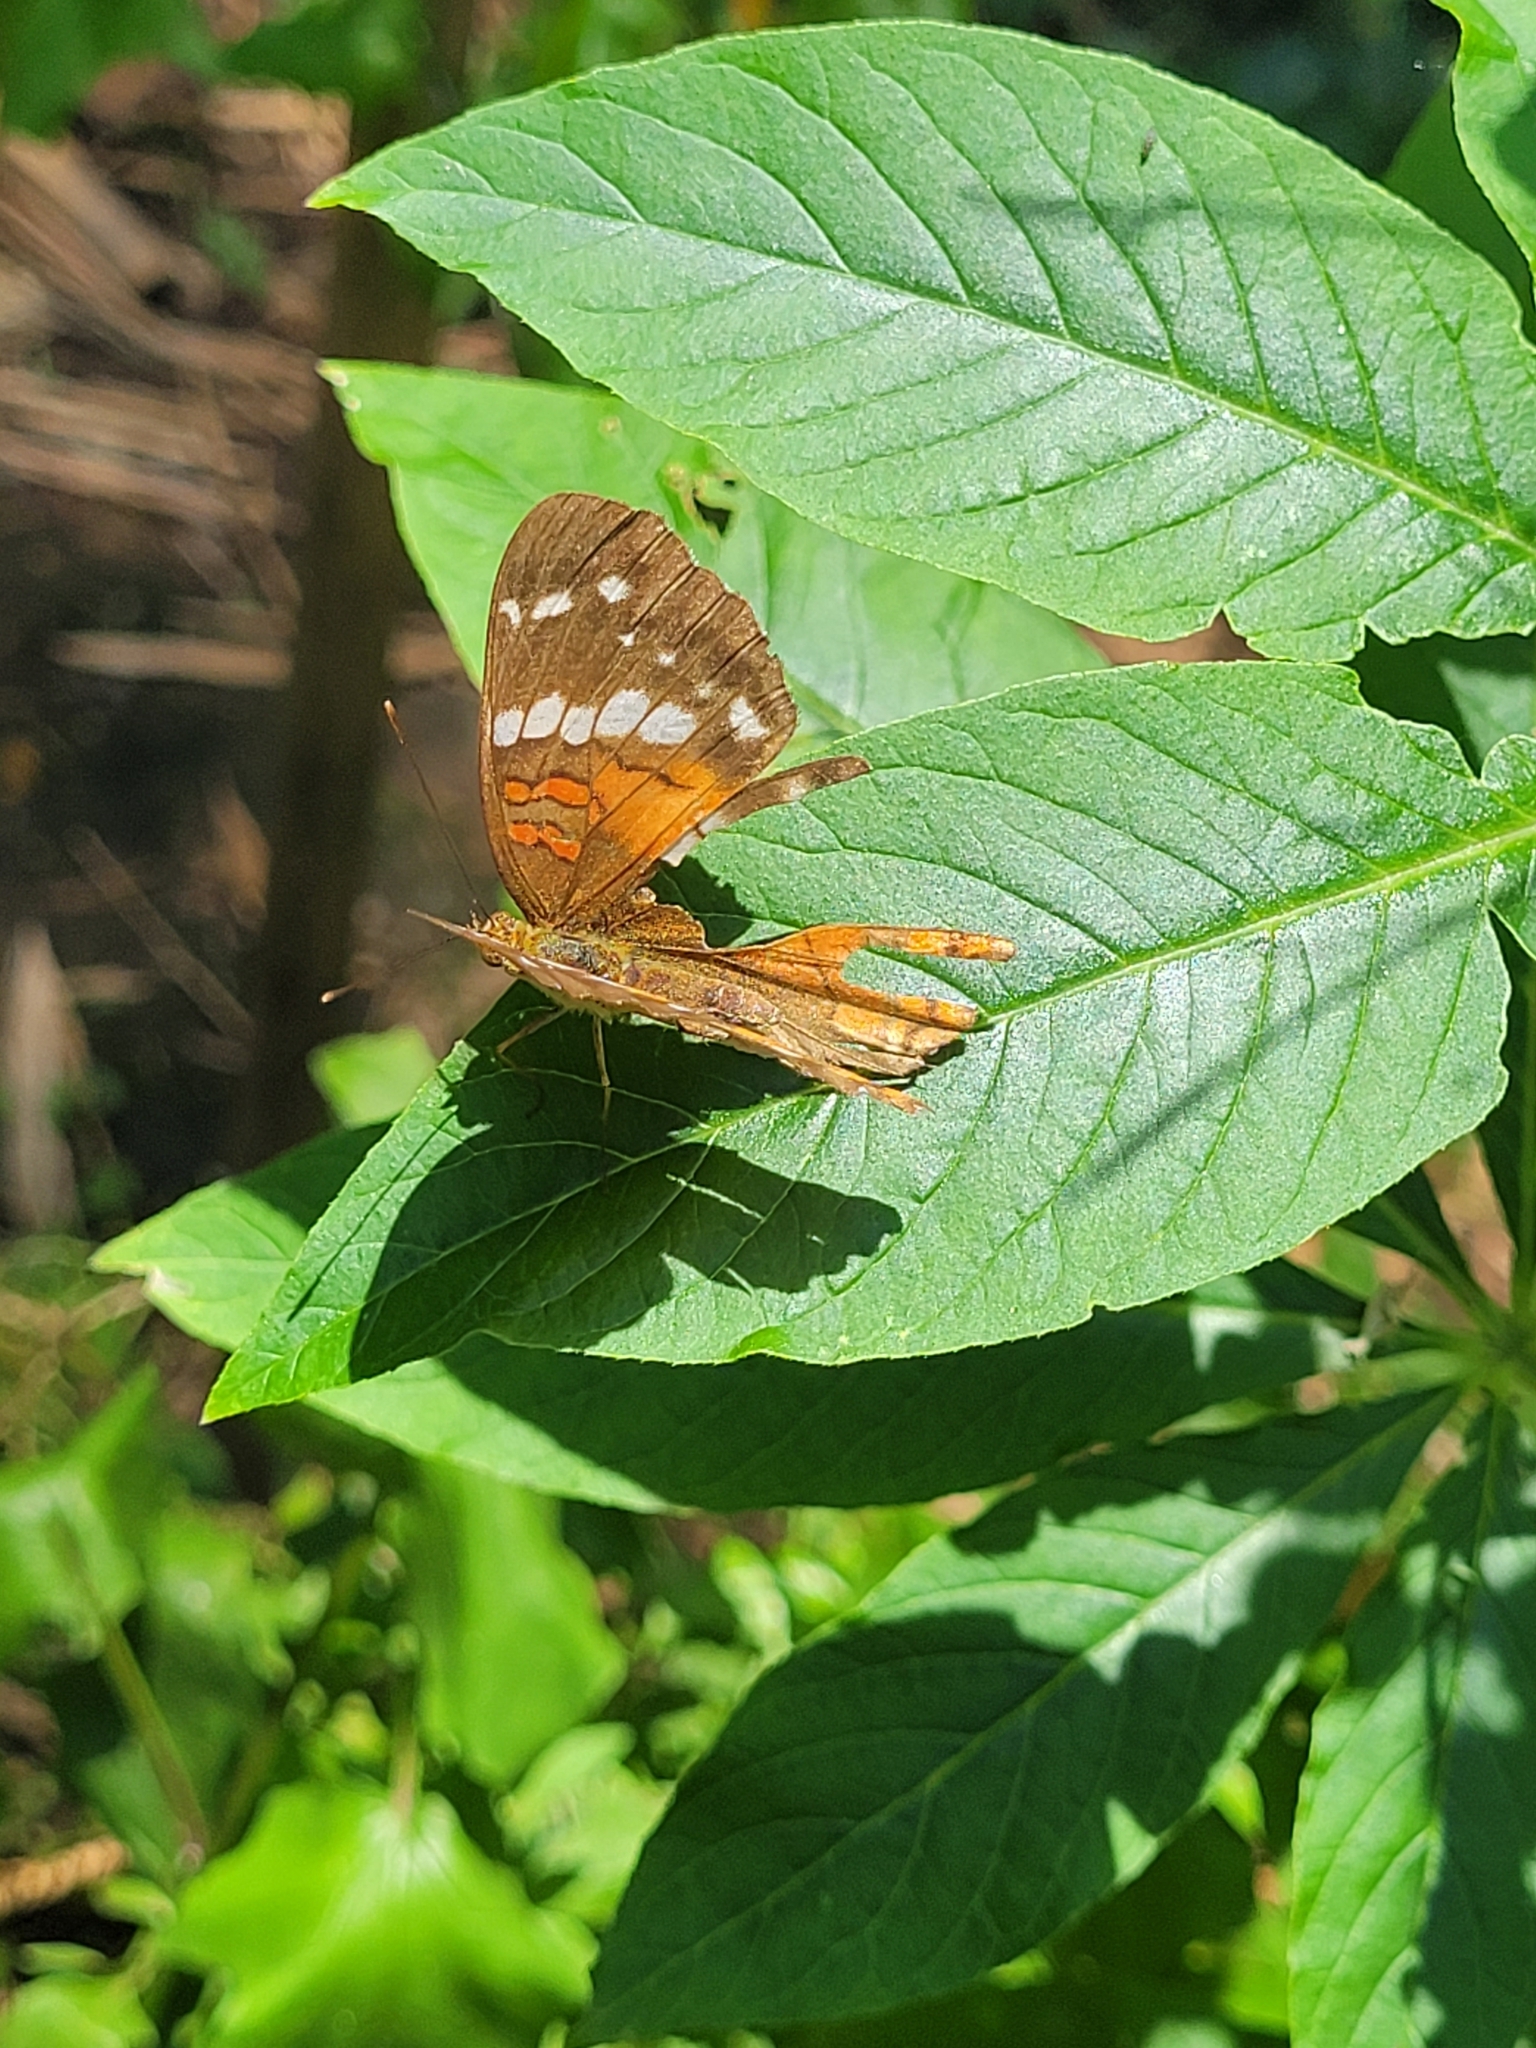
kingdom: Animalia
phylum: Arthropoda
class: Insecta
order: Lepidoptera
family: Nymphalidae
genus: Anartia
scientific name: Anartia amathea
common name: Red peacock
